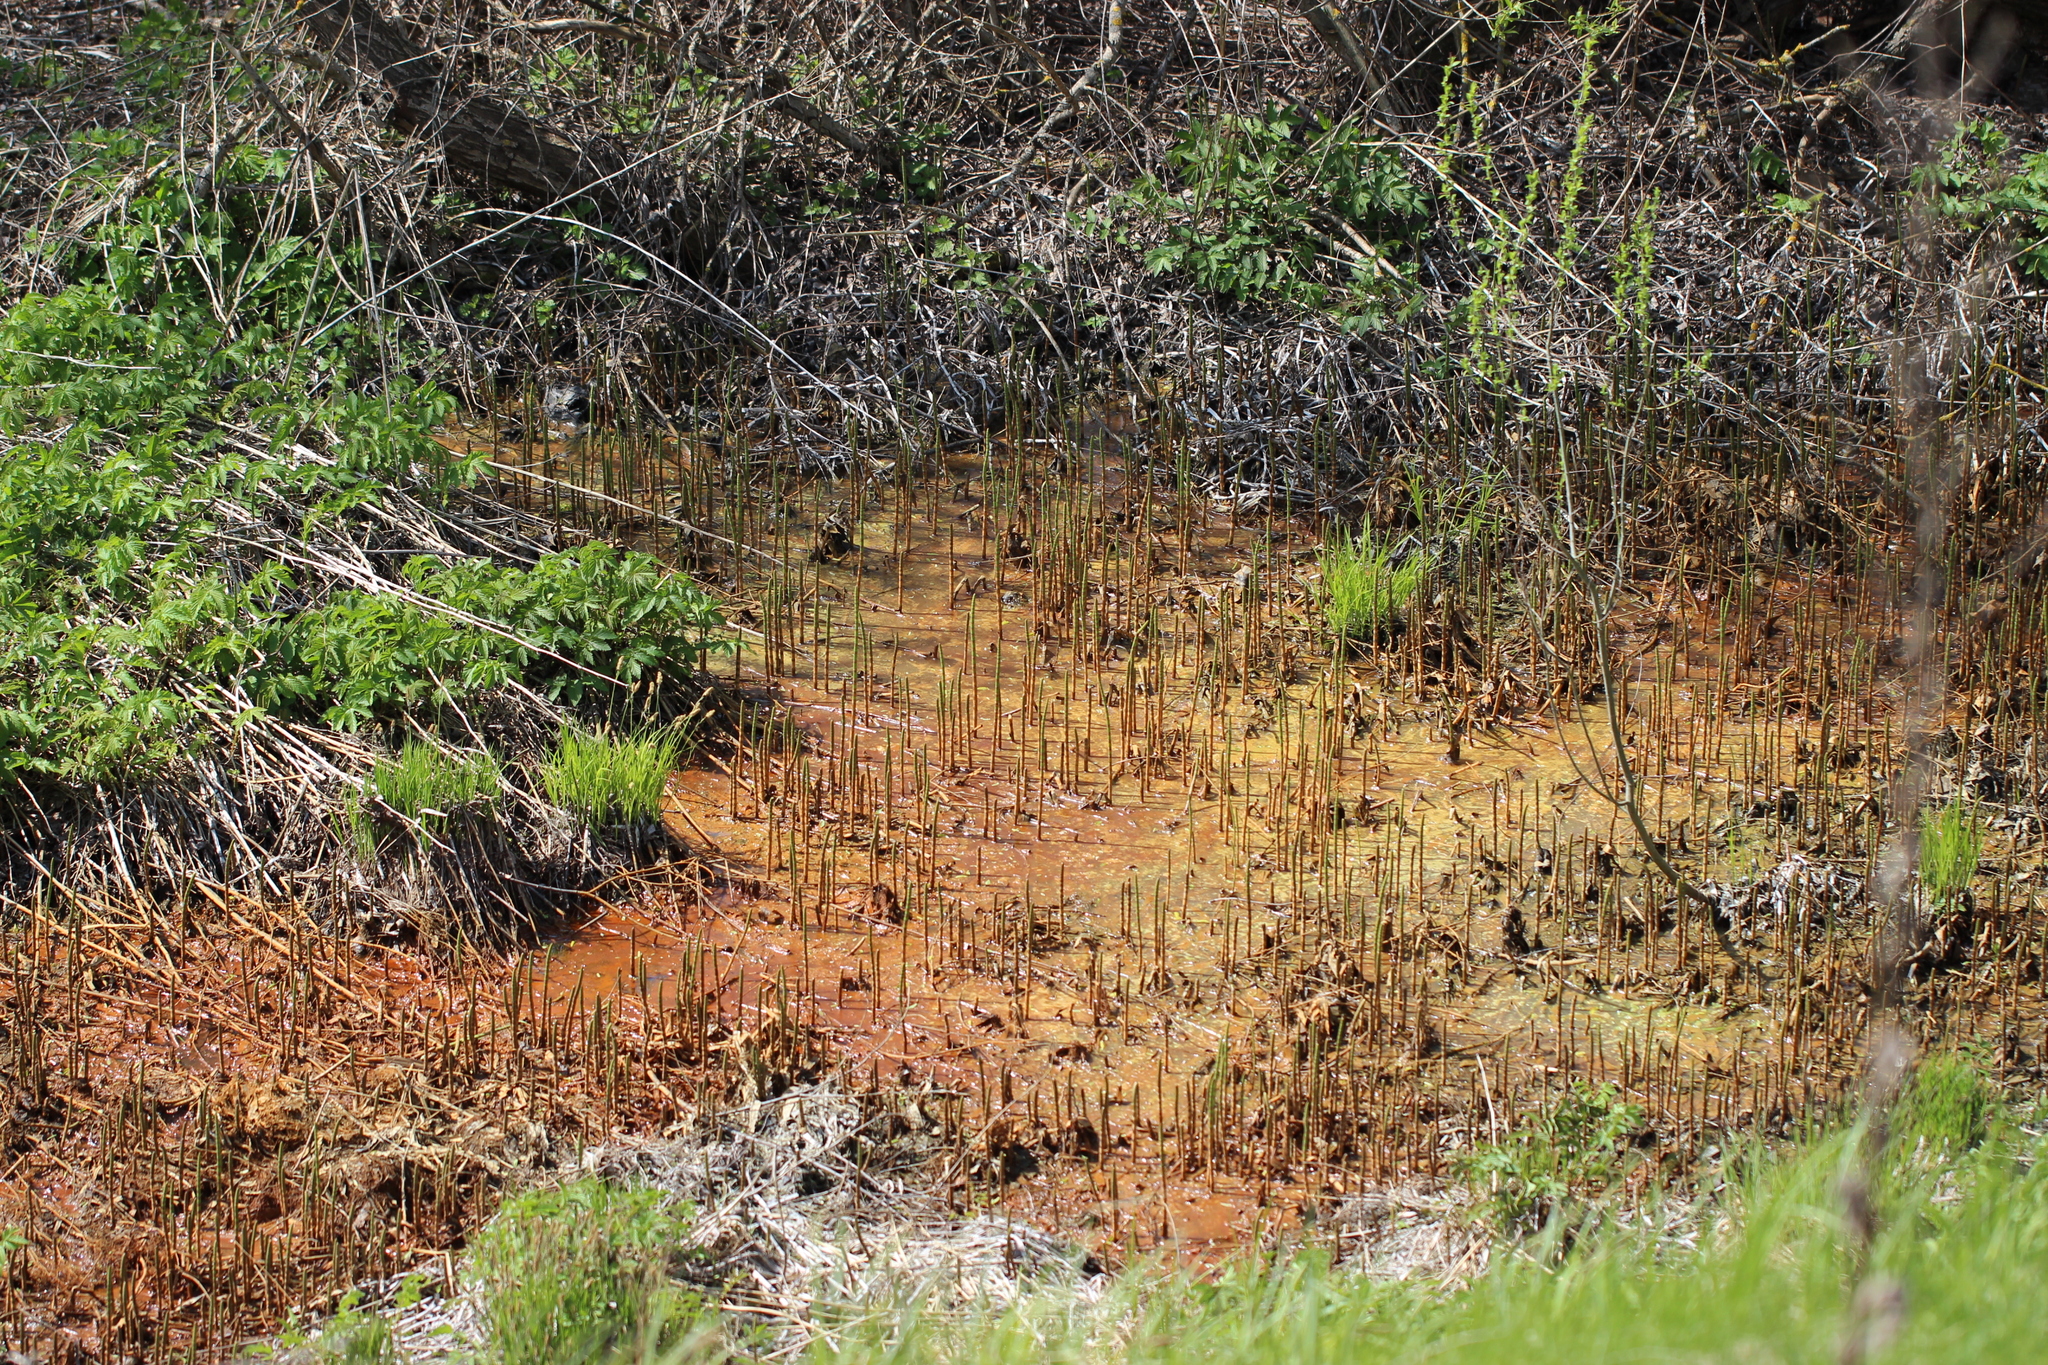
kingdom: Plantae
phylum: Tracheophyta
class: Polypodiopsida
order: Equisetales
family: Equisetaceae
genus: Equisetum
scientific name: Equisetum fluviatile
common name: Water horsetail
